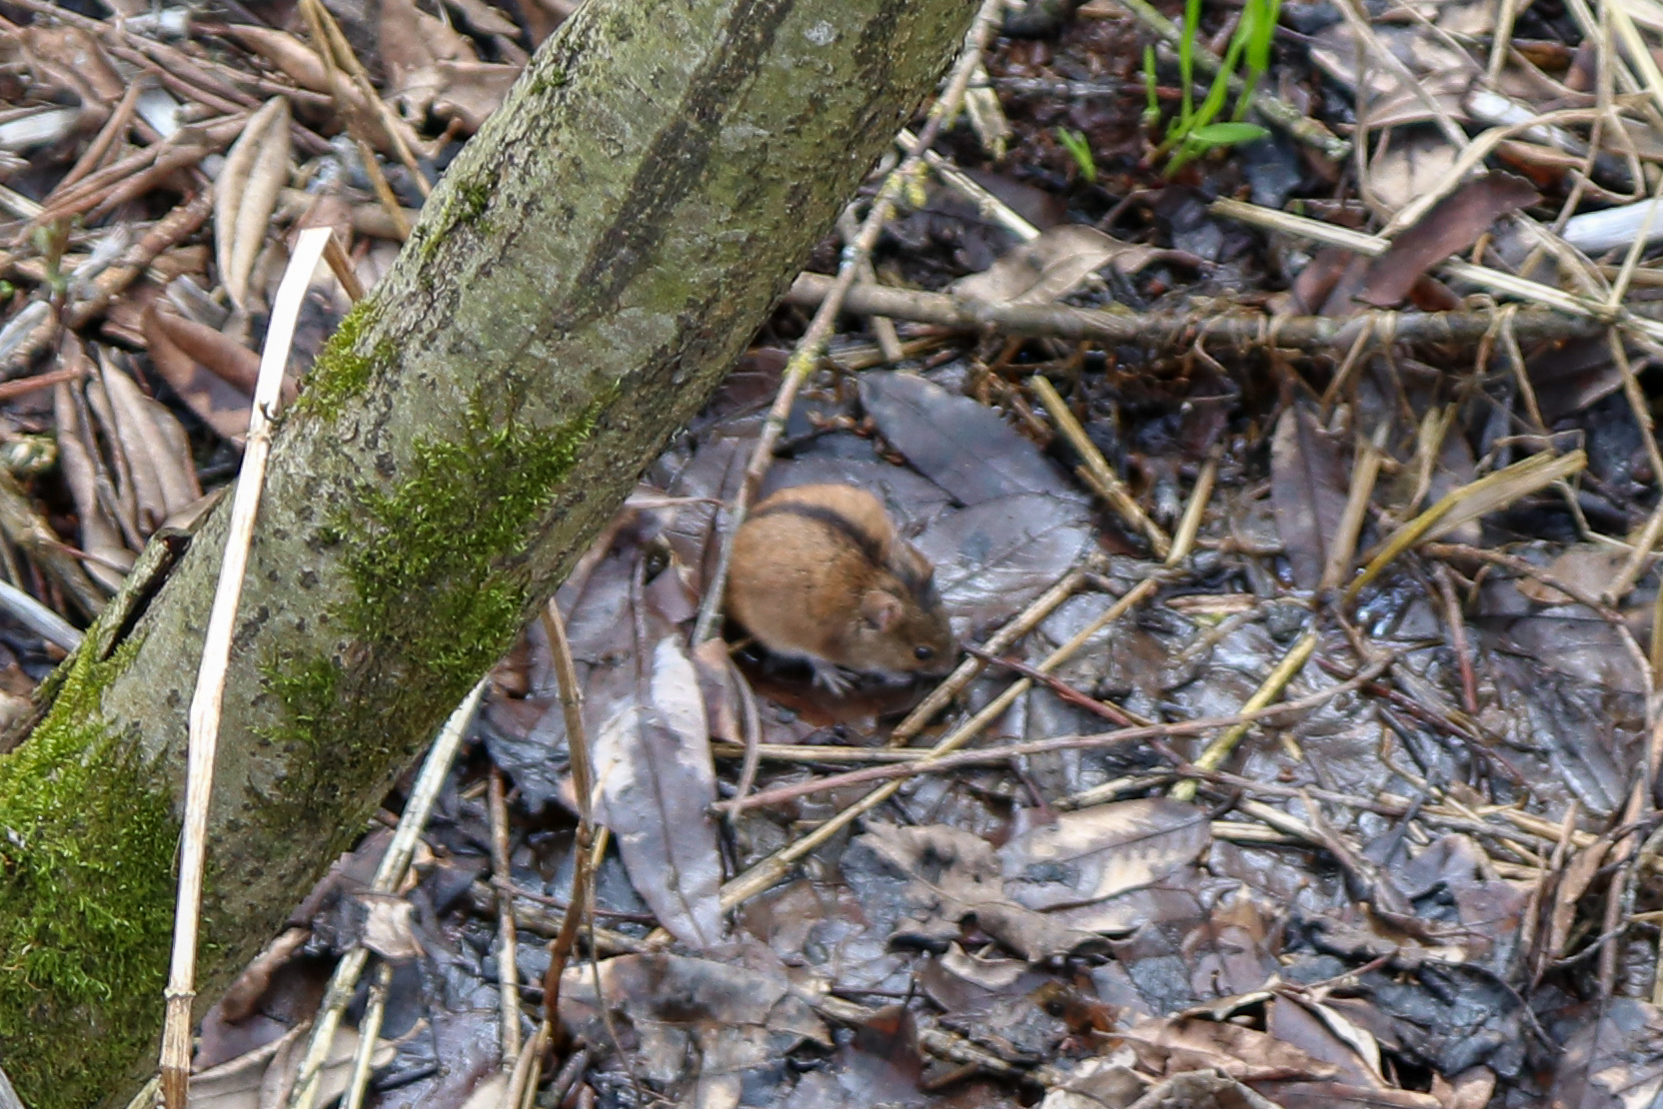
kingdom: Animalia
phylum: Chordata
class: Mammalia
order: Rodentia
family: Muridae
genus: Apodemus
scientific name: Apodemus agrarius
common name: Striped field mouse
